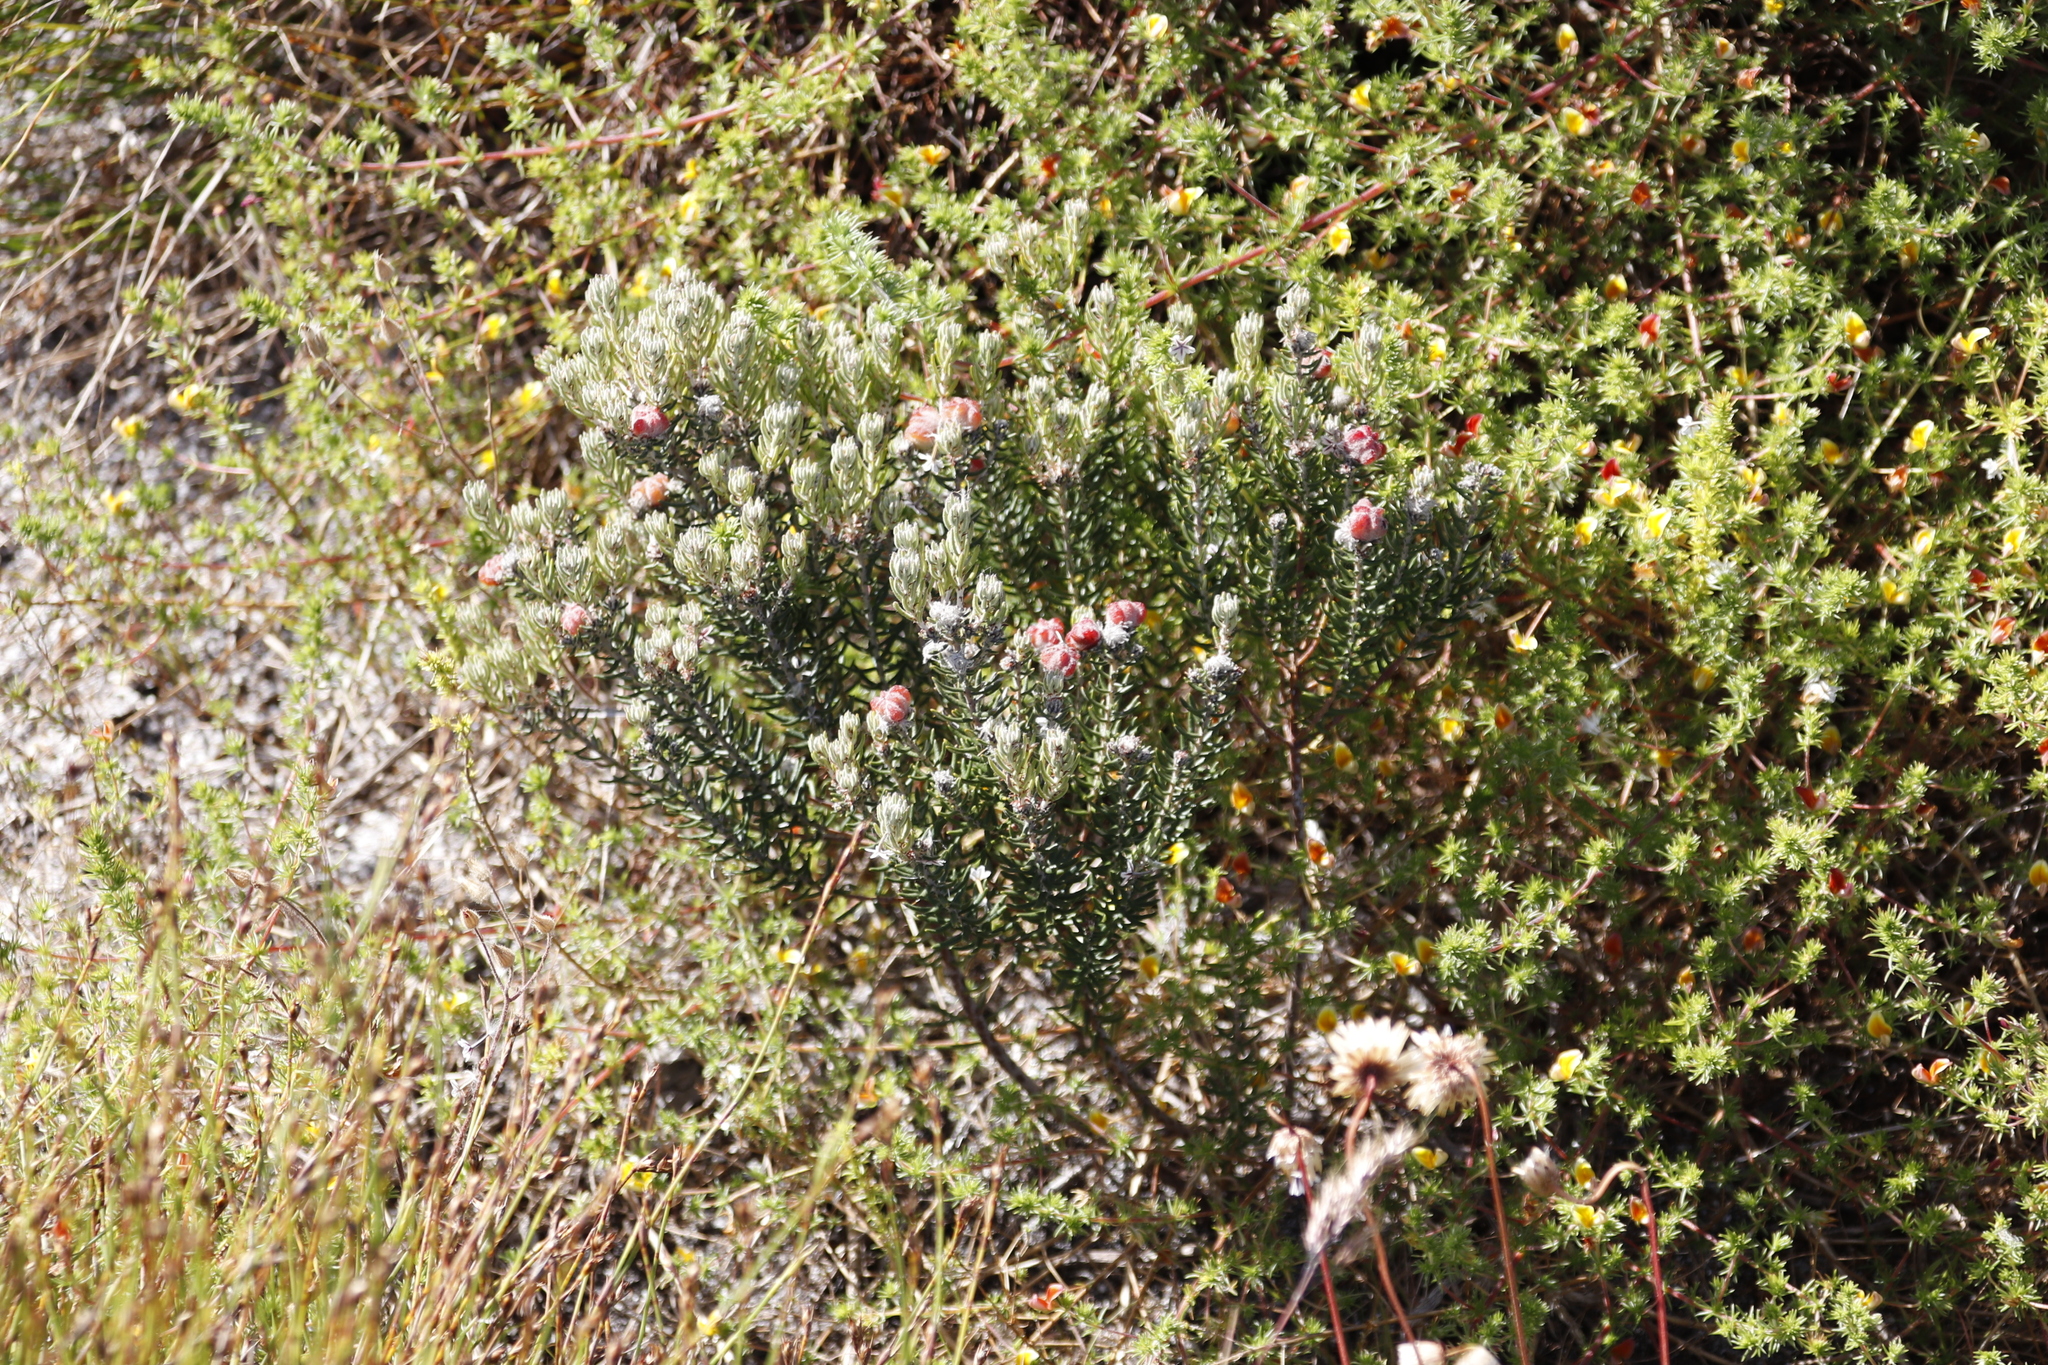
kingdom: Plantae
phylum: Tracheophyta
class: Magnoliopsida
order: Rosales
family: Rhamnaceae
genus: Trichocephalus
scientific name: Trichocephalus stipularis
